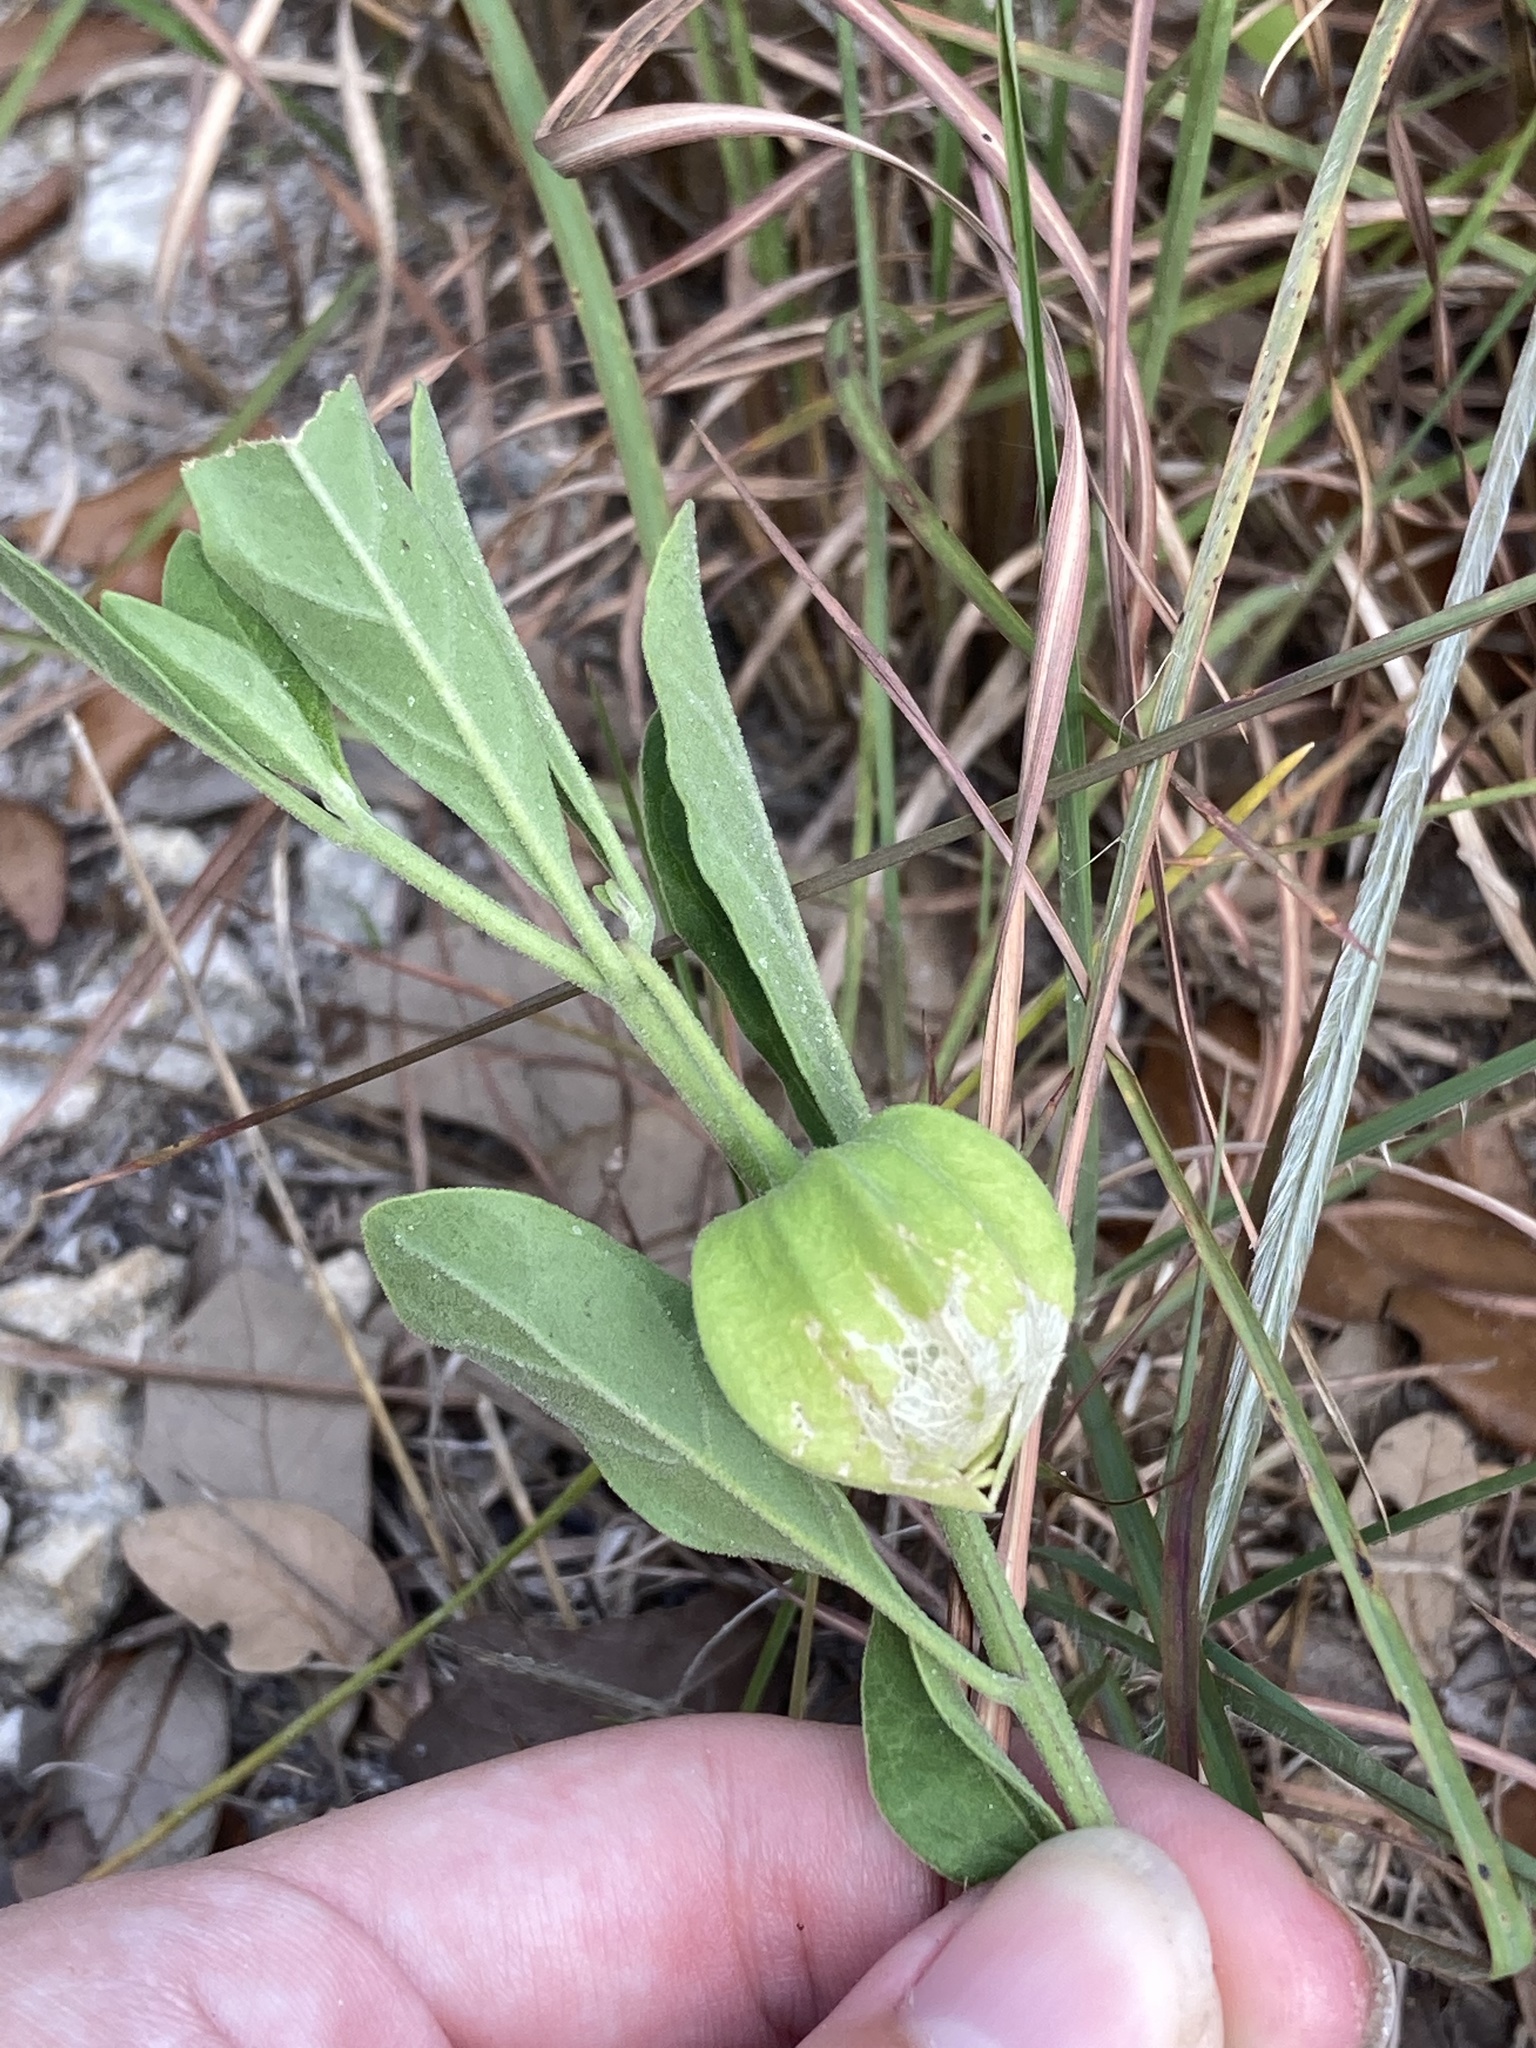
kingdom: Plantae
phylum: Tracheophyta
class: Magnoliopsida
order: Solanales
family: Solanaceae
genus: Physalis
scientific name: Physalis walteri
